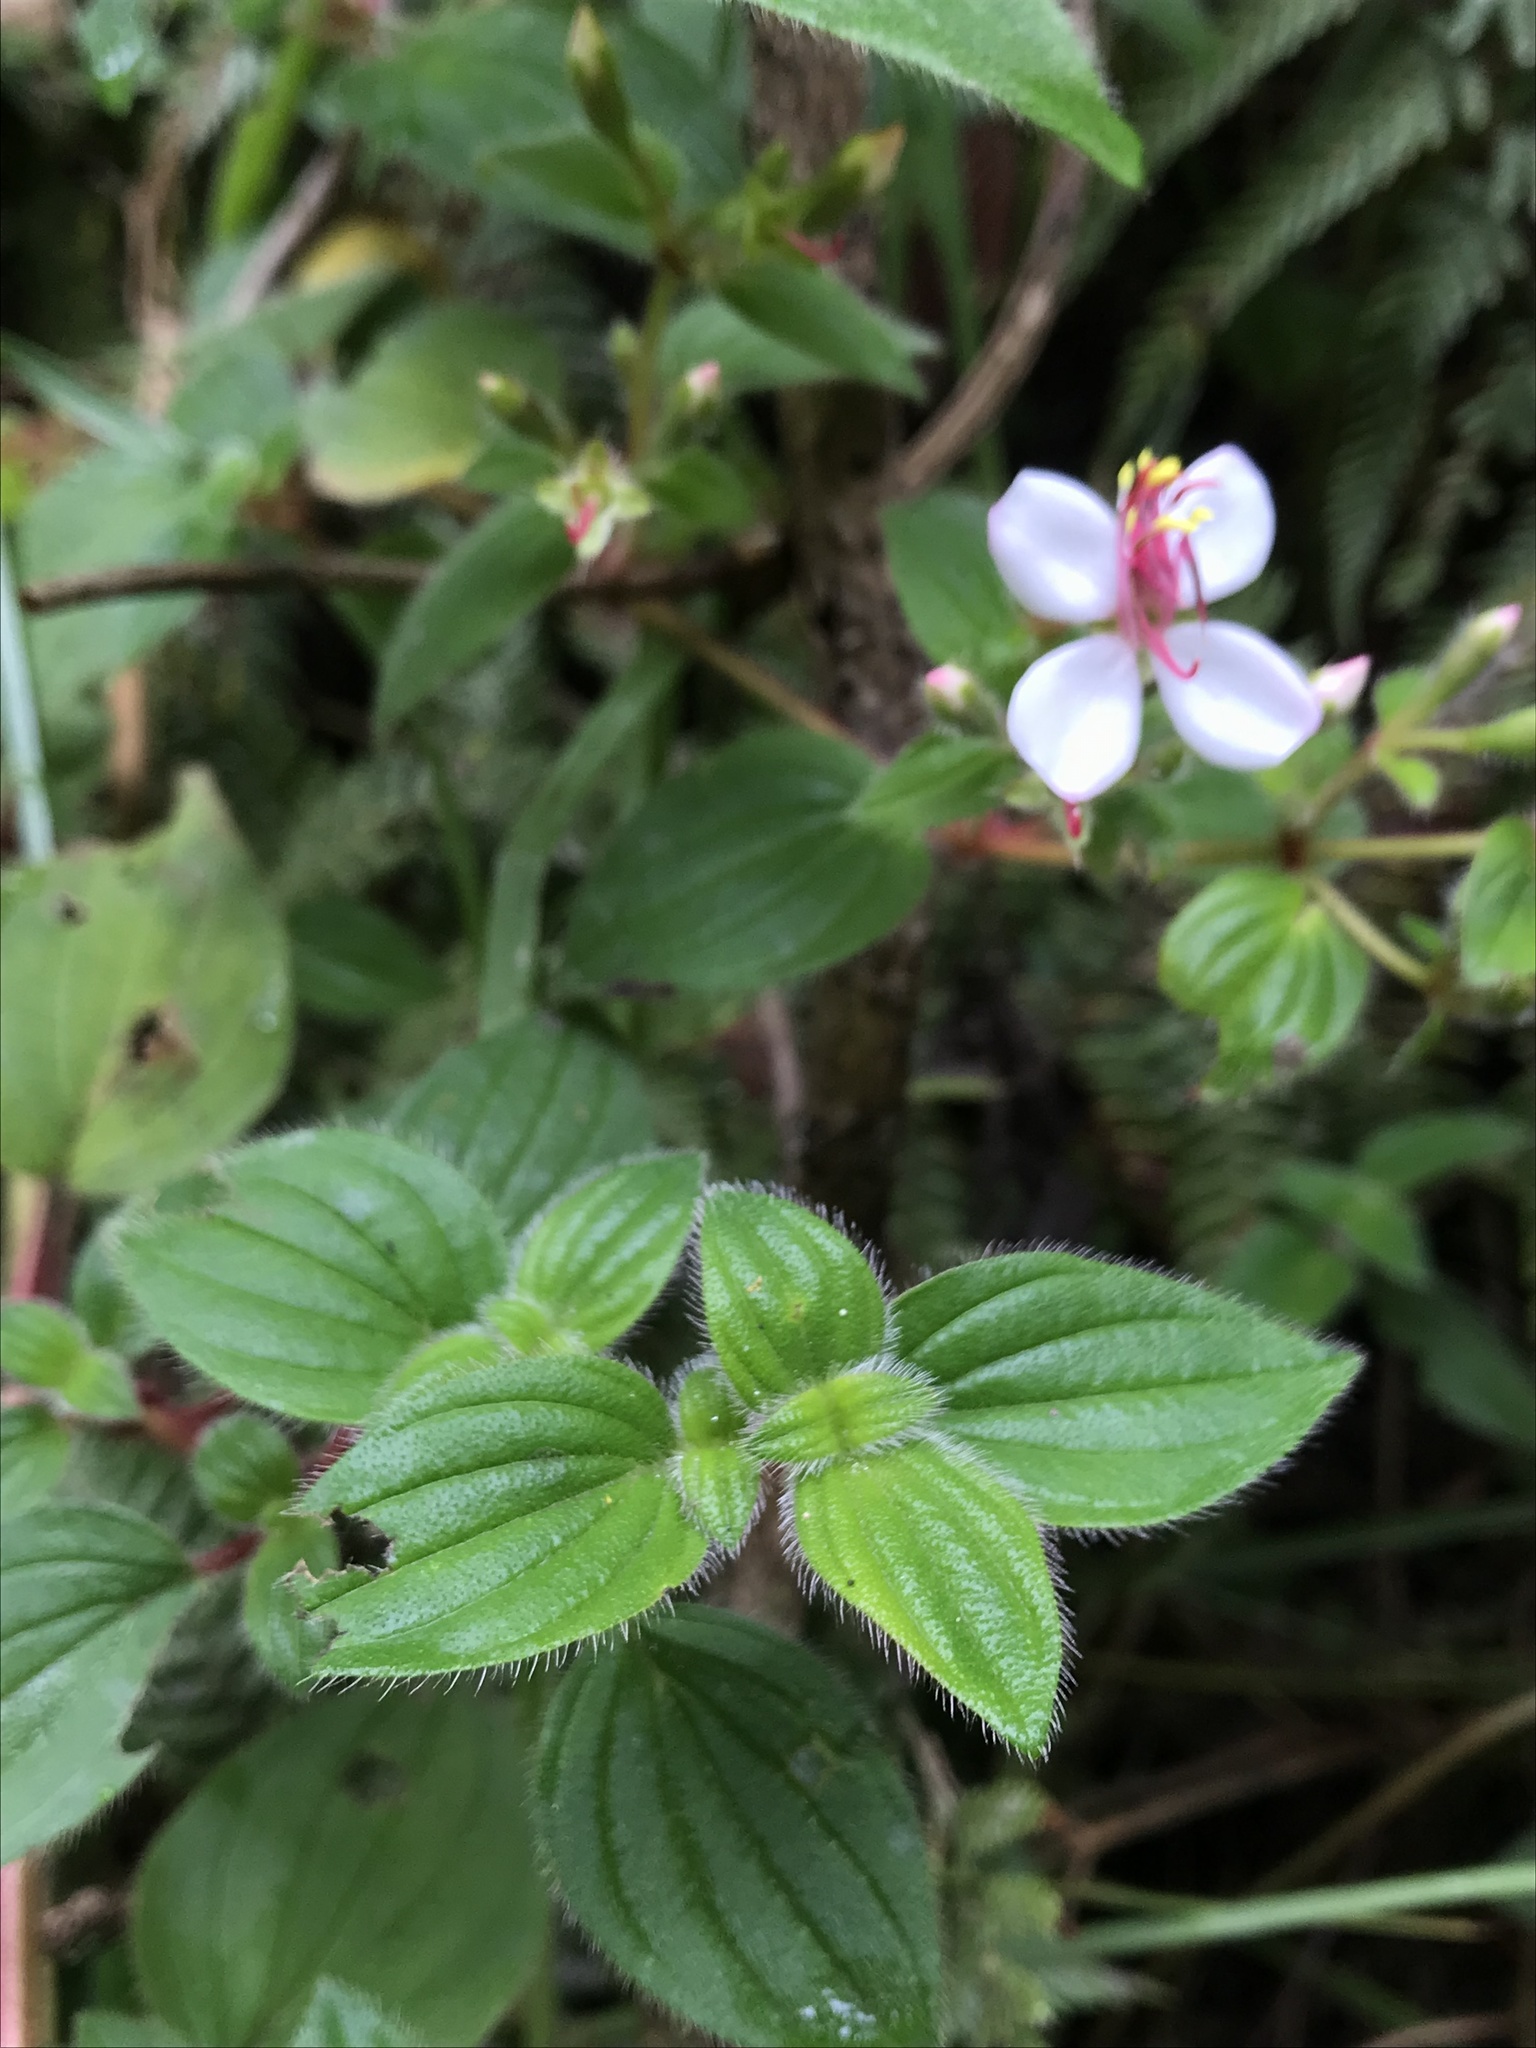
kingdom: Plantae
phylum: Tracheophyta
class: Magnoliopsida
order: Myrtales
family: Melastomataceae
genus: Monochaetum
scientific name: Monochaetum glanduliferum
